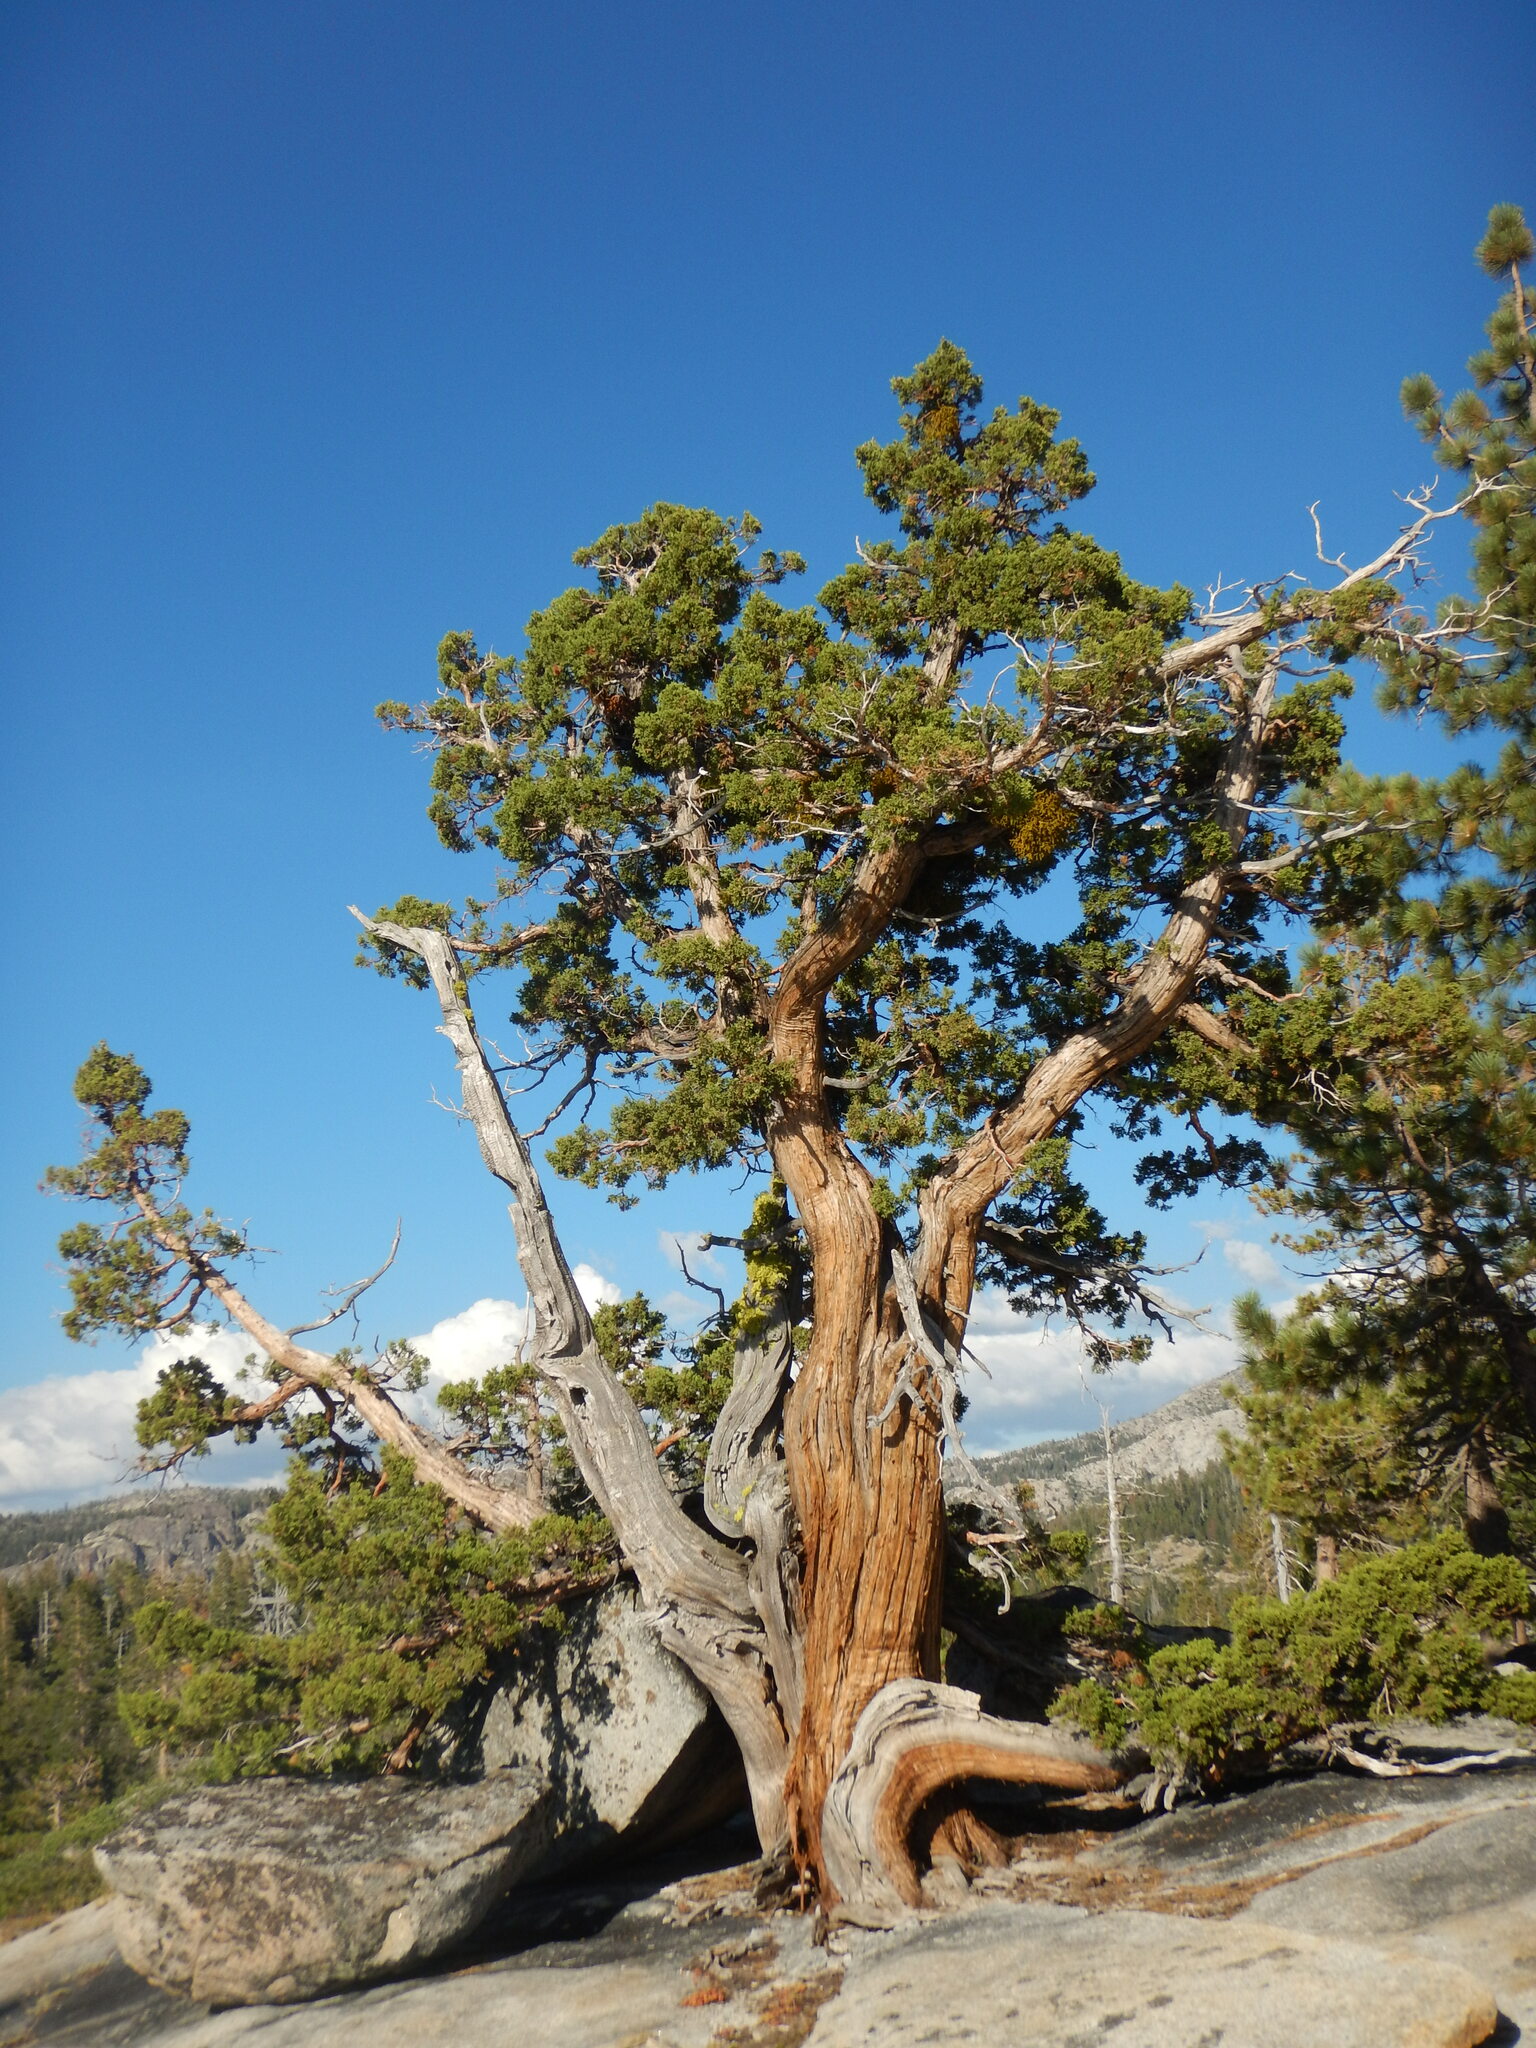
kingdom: Plantae
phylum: Tracheophyta
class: Magnoliopsida
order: Santalales
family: Viscaceae
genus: Phoradendron
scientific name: Phoradendron juniperinum
